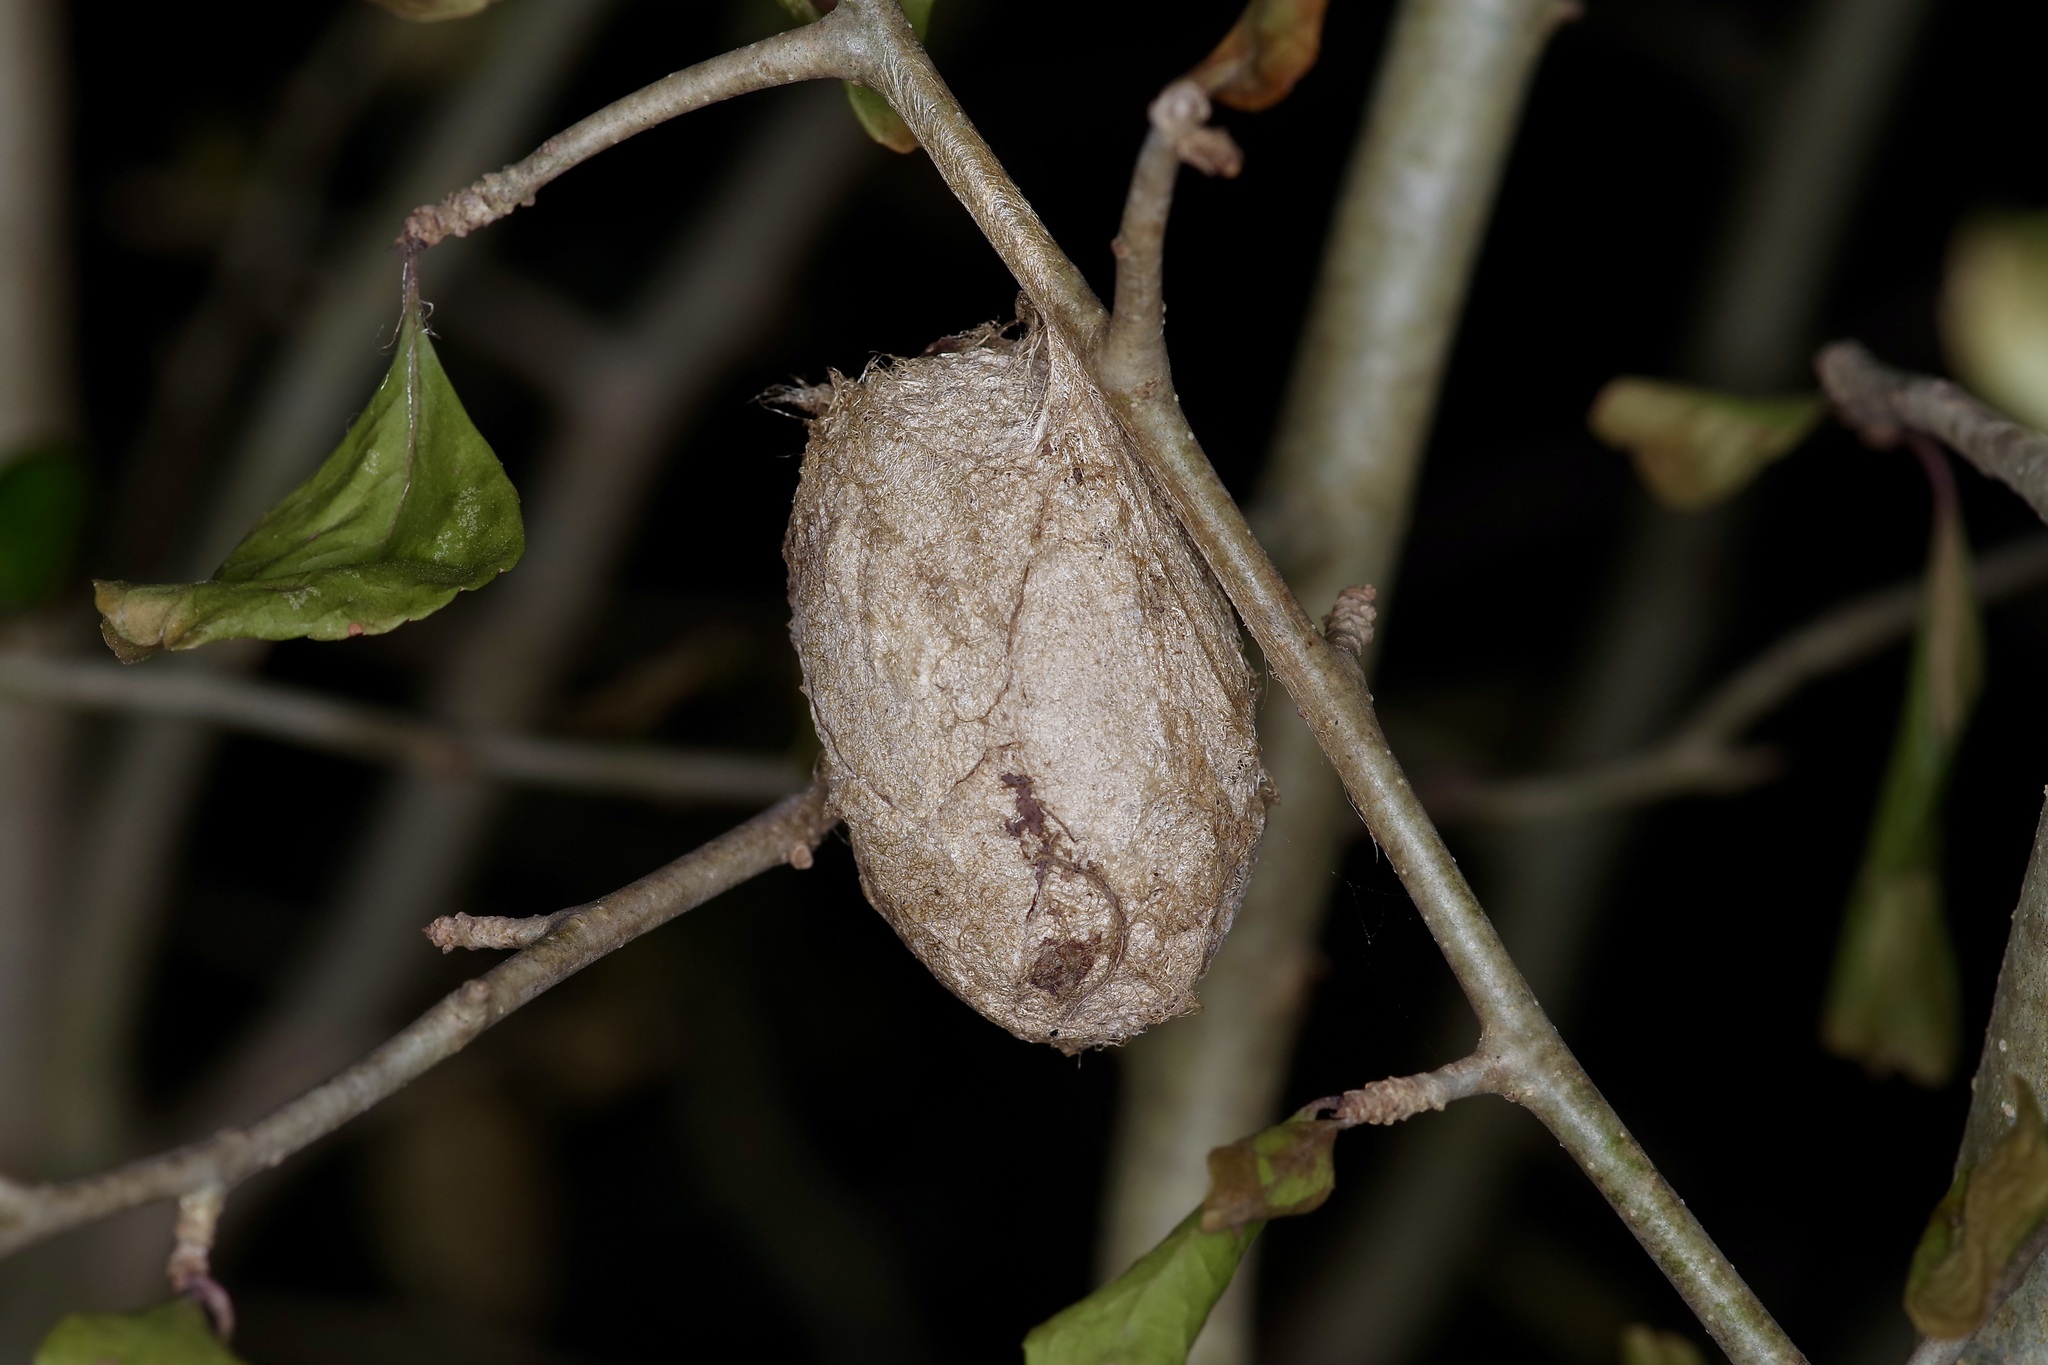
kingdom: Animalia
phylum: Arthropoda
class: Insecta
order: Lepidoptera
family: Saturniidae
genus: Antheraea
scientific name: Antheraea polyphemus
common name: Polyphemus moth
